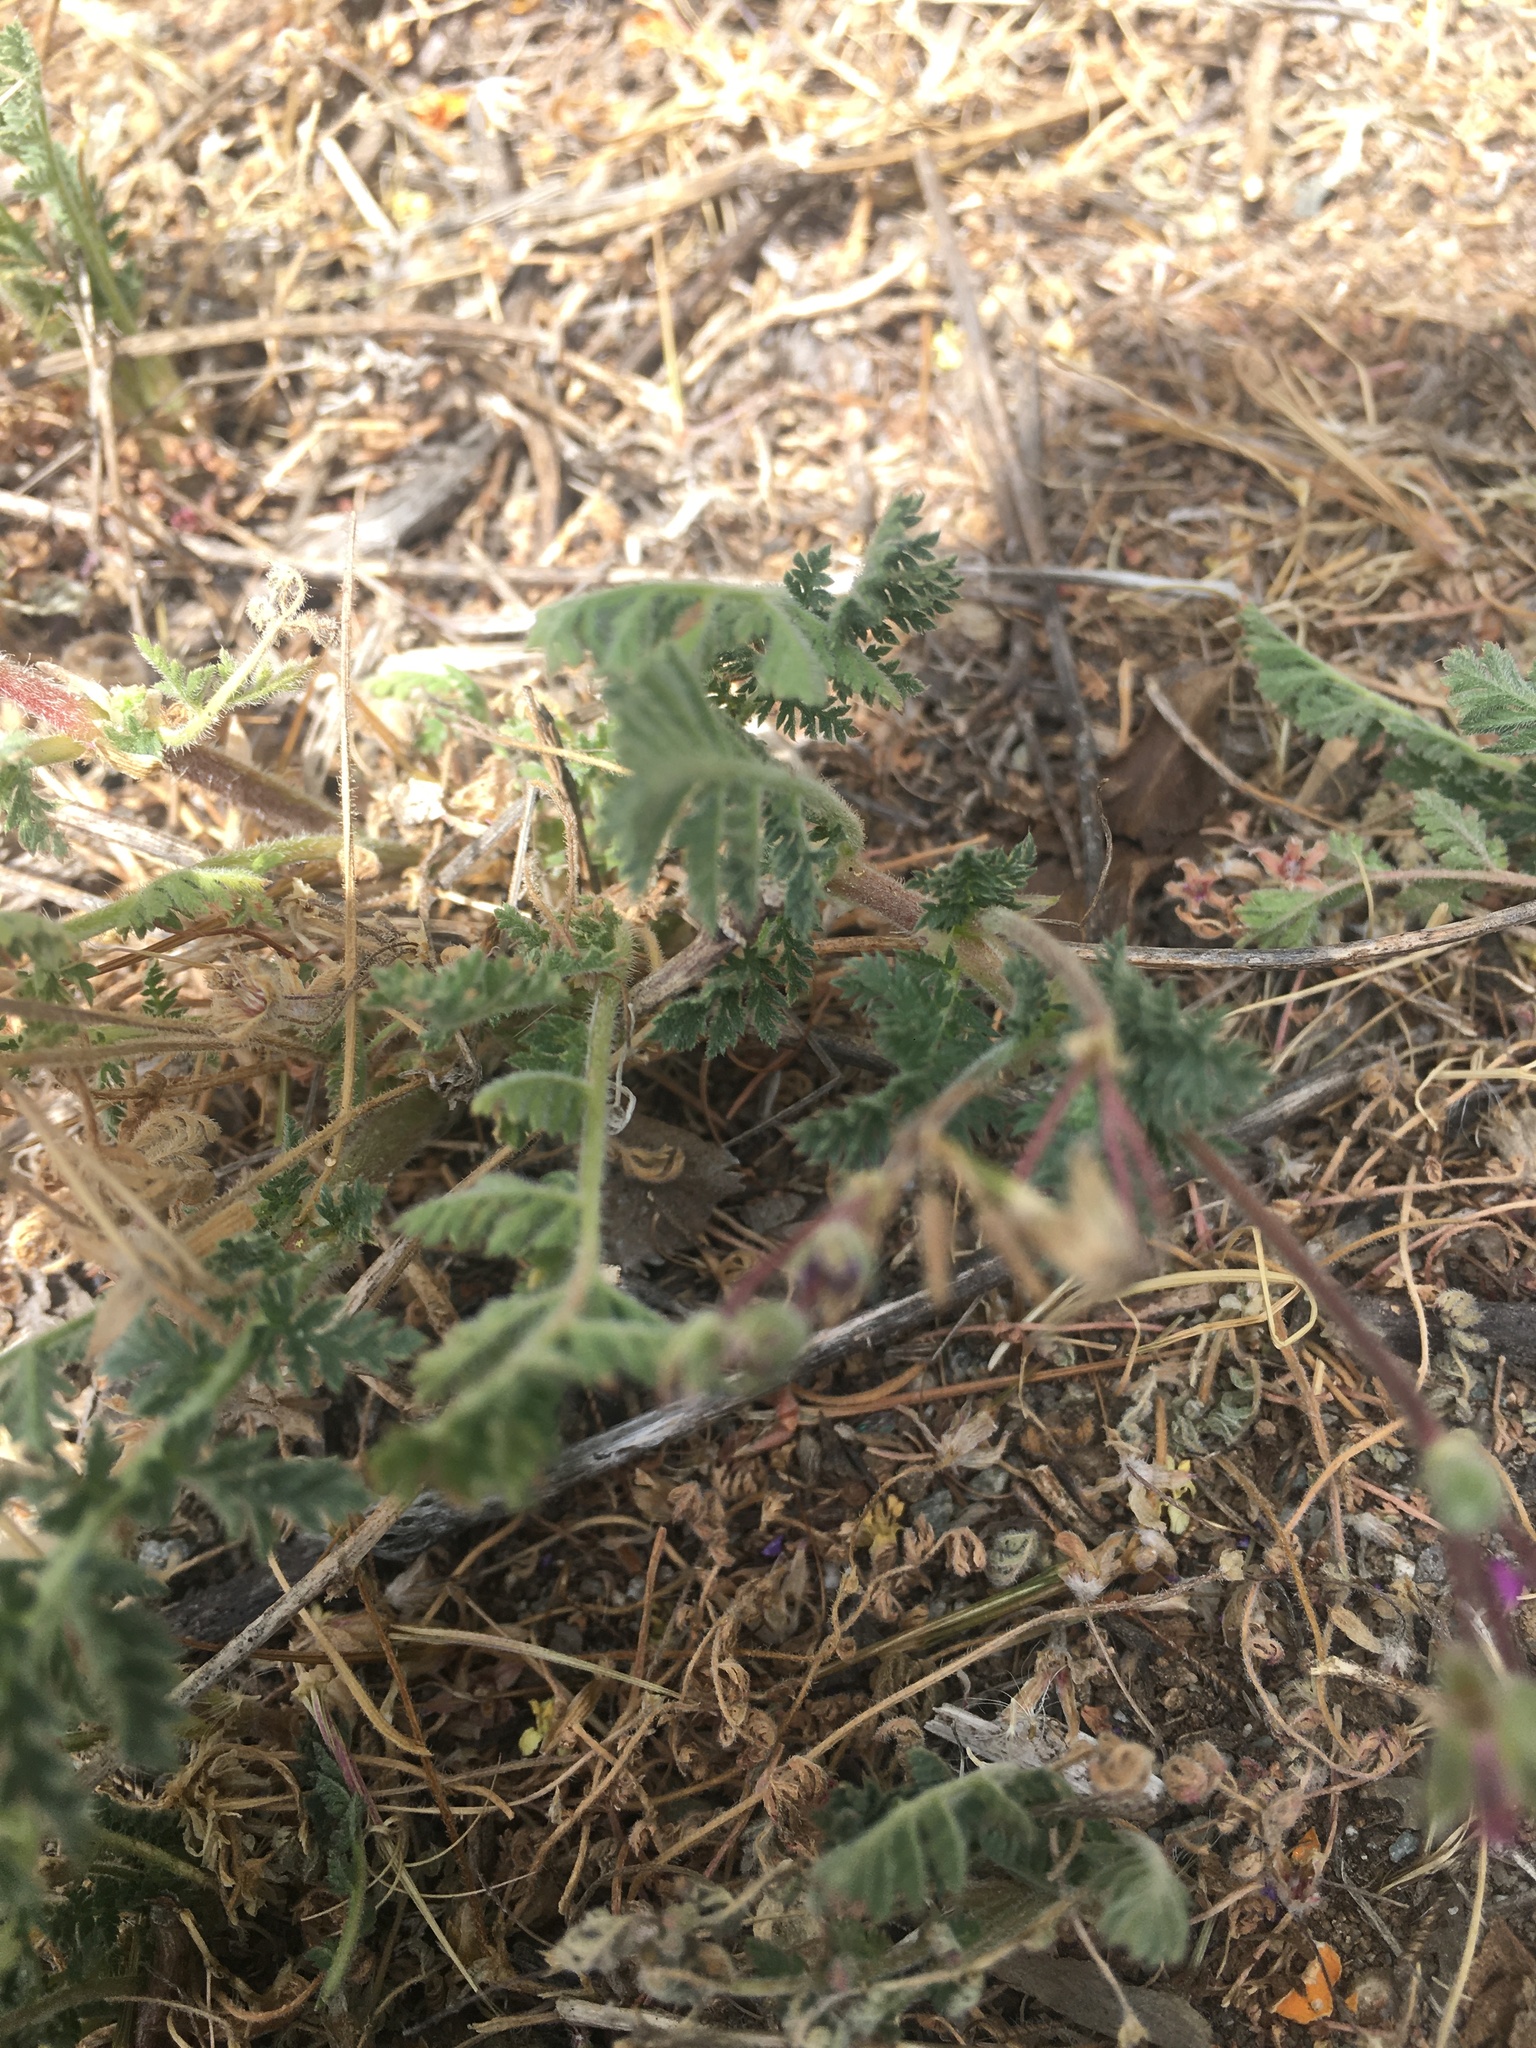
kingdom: Plantae
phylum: Tracheophyta
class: Magnoliopsida
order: Geraniales
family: Geraniaceae
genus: Erodium
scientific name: Erodium cicutarium
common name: Common stork's-bill
